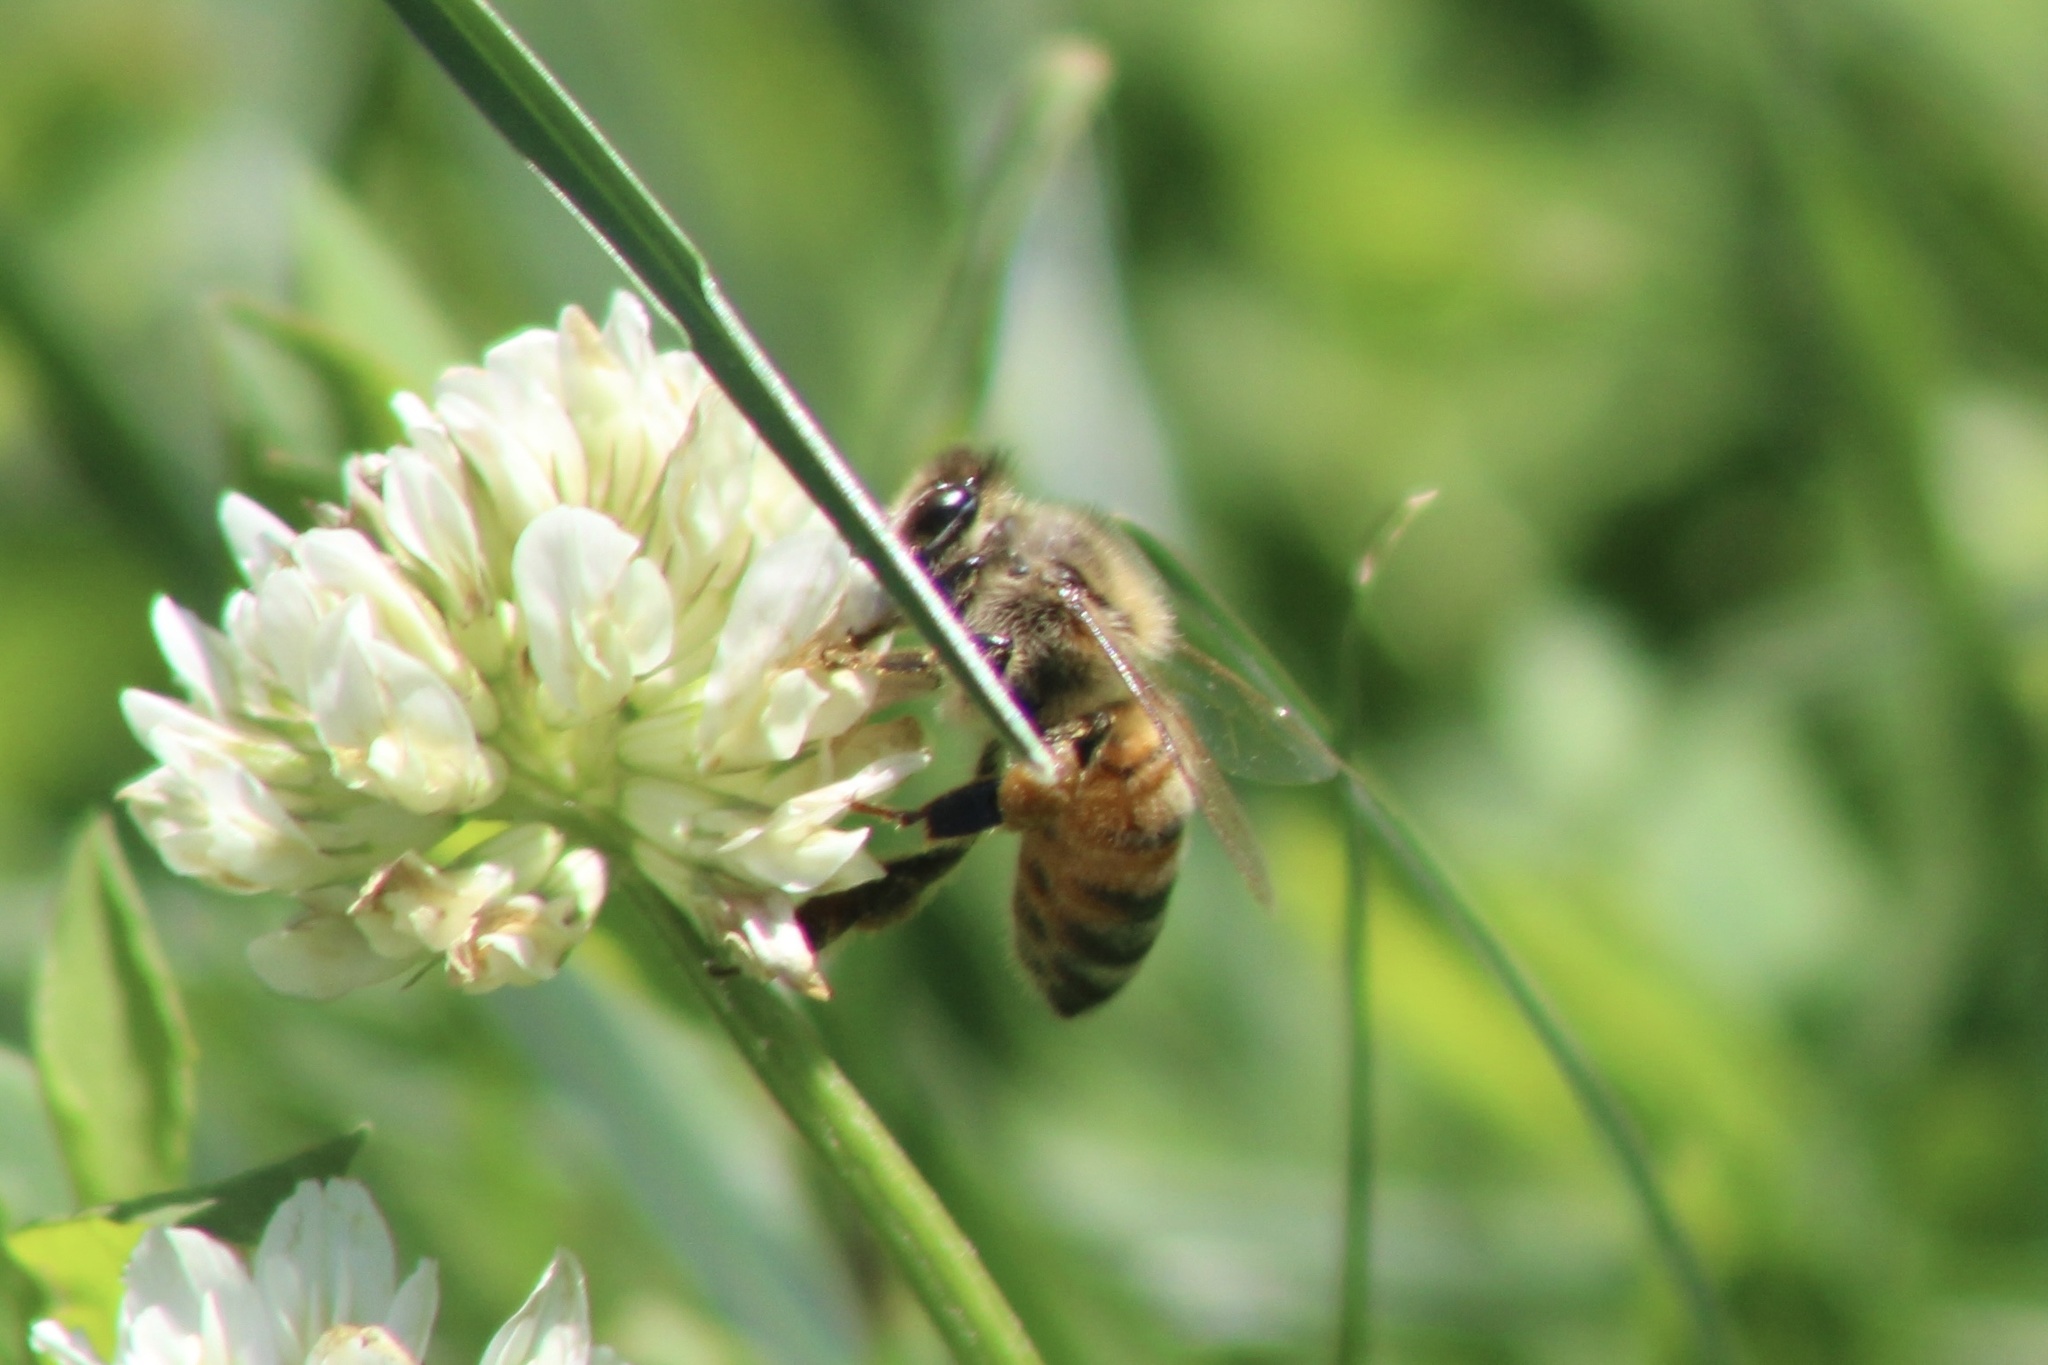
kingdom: Animalia
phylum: Arthropoda
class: Insecta
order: Hymenoptera
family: Apidae
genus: Apis
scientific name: Apis mellifera
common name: Honey bee
